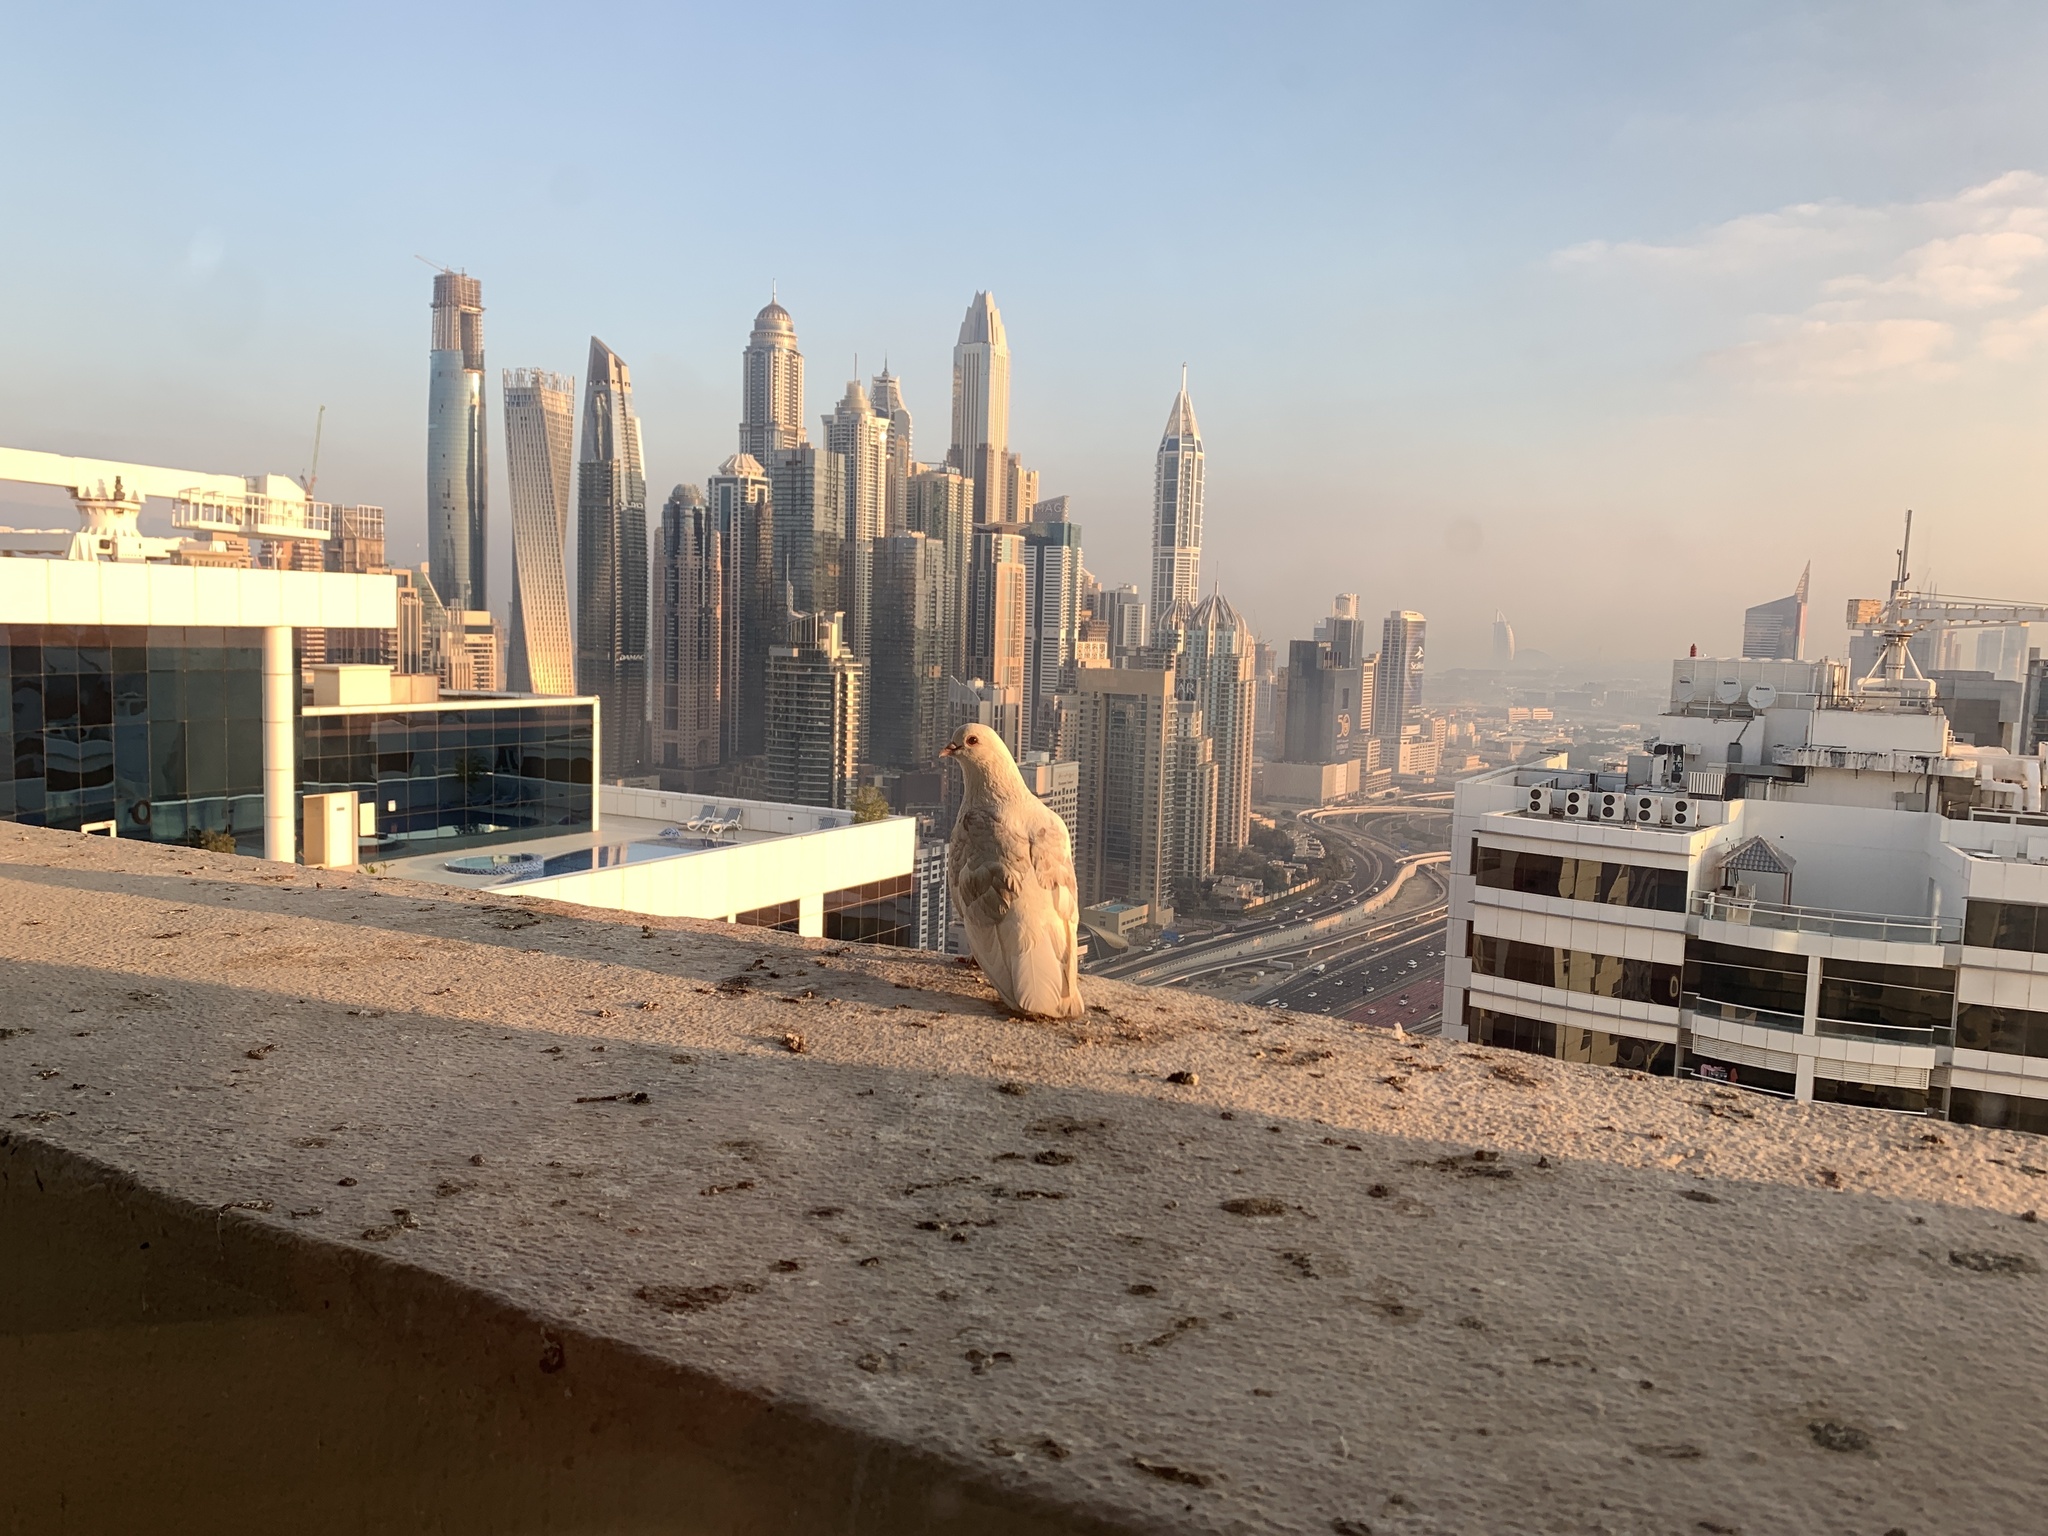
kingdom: Animalia
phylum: Chordata
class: Aves
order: Columbiformes
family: Columbidae
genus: Columba
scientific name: Columba livia
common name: Rock pigeon
